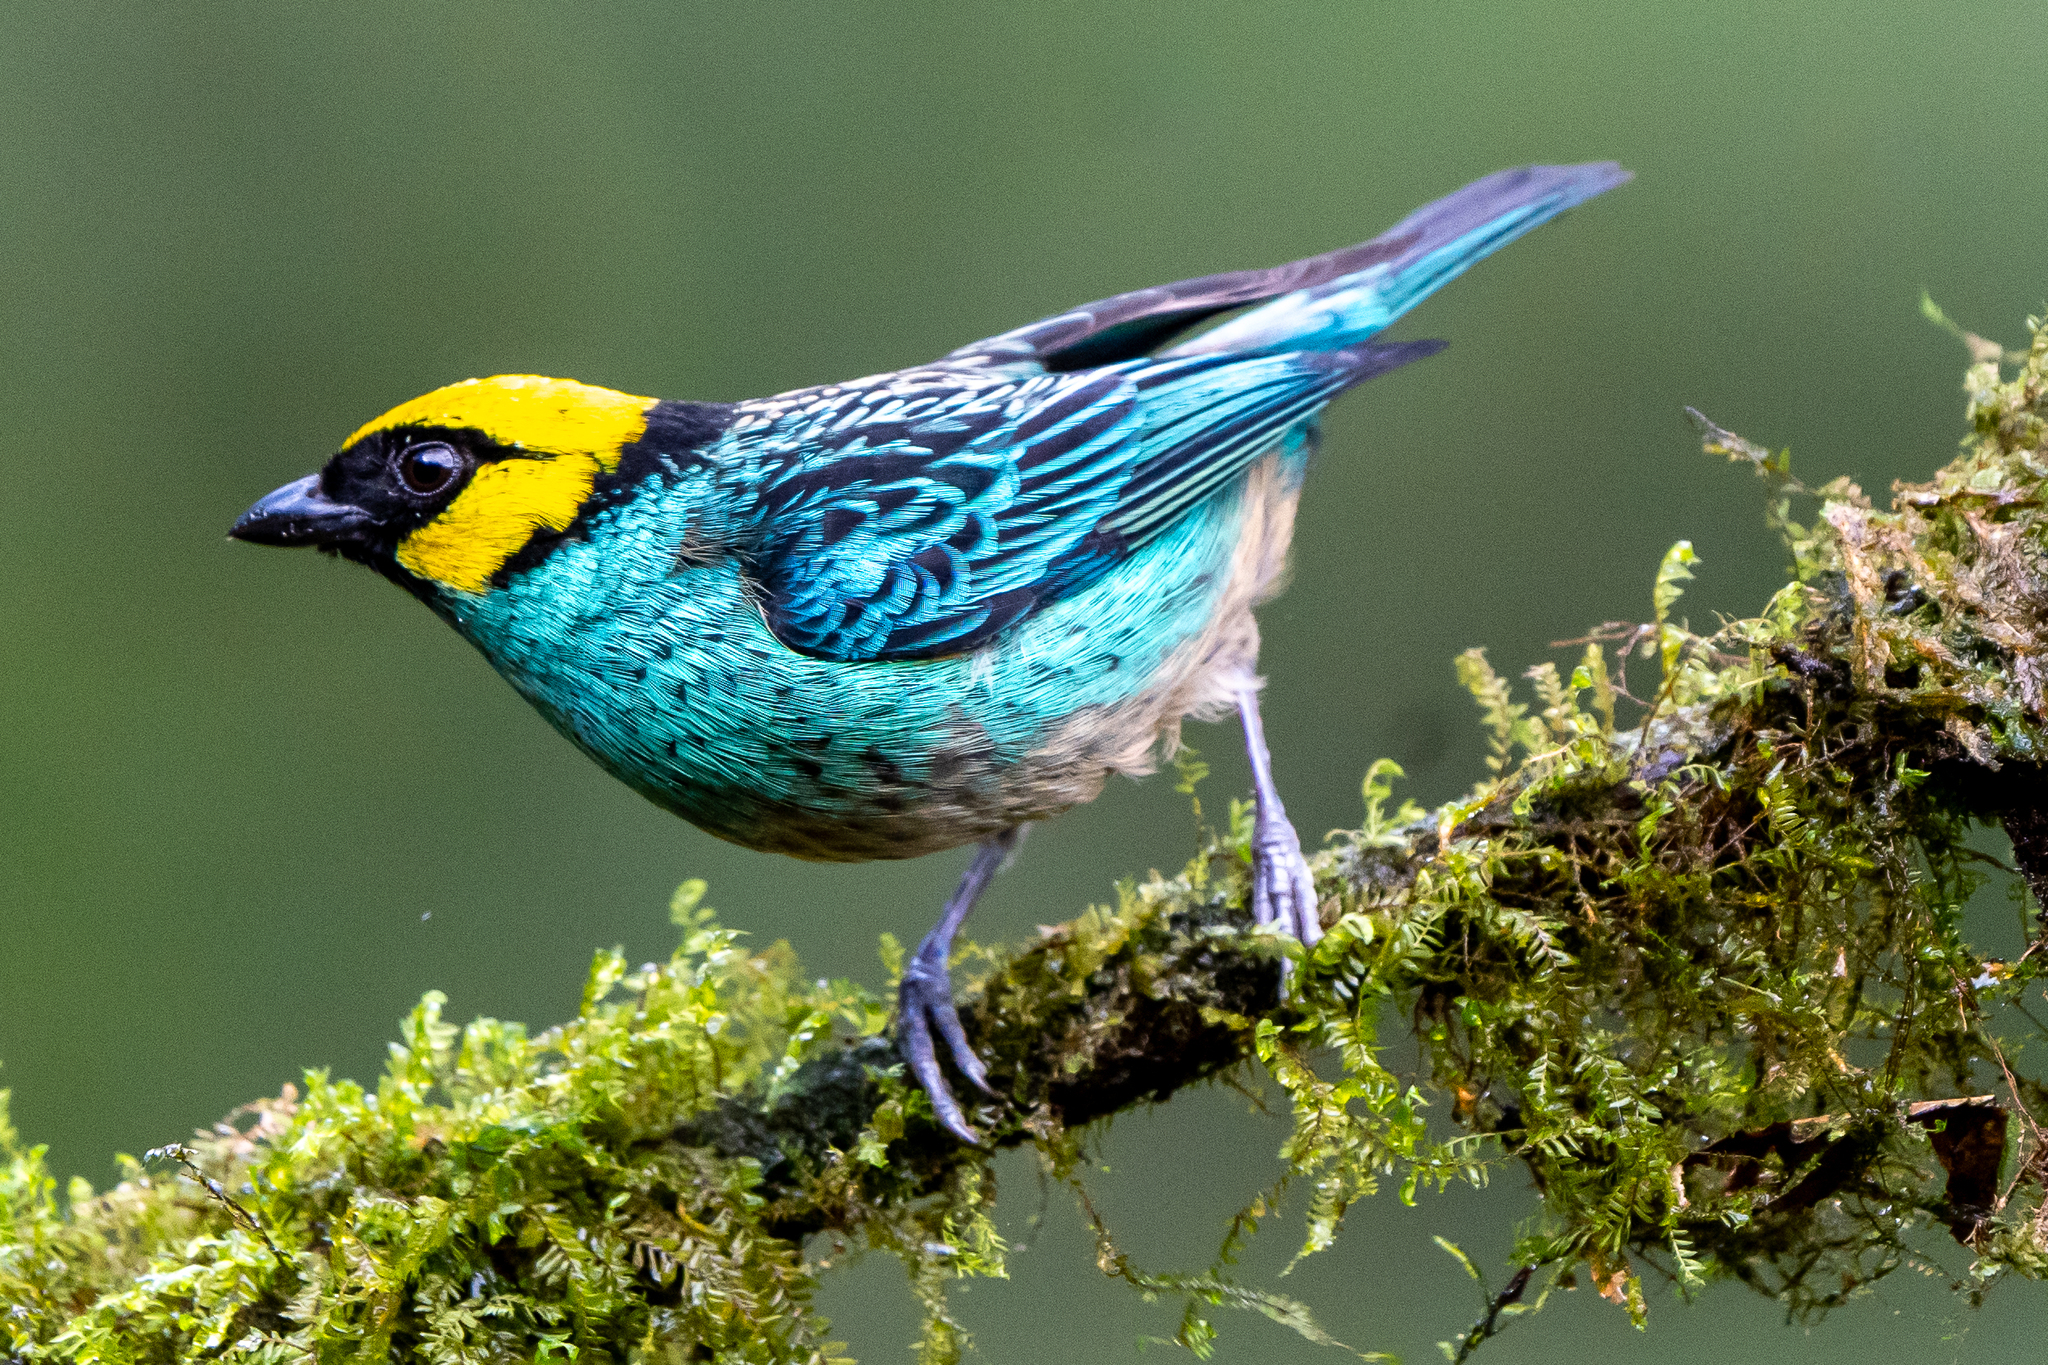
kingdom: Animalia
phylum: Chordata
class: Aves
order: Passeriformes
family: Thraupidae
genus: Tangara
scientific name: Tangara xanthocephala
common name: Saffron-crowned tanager
